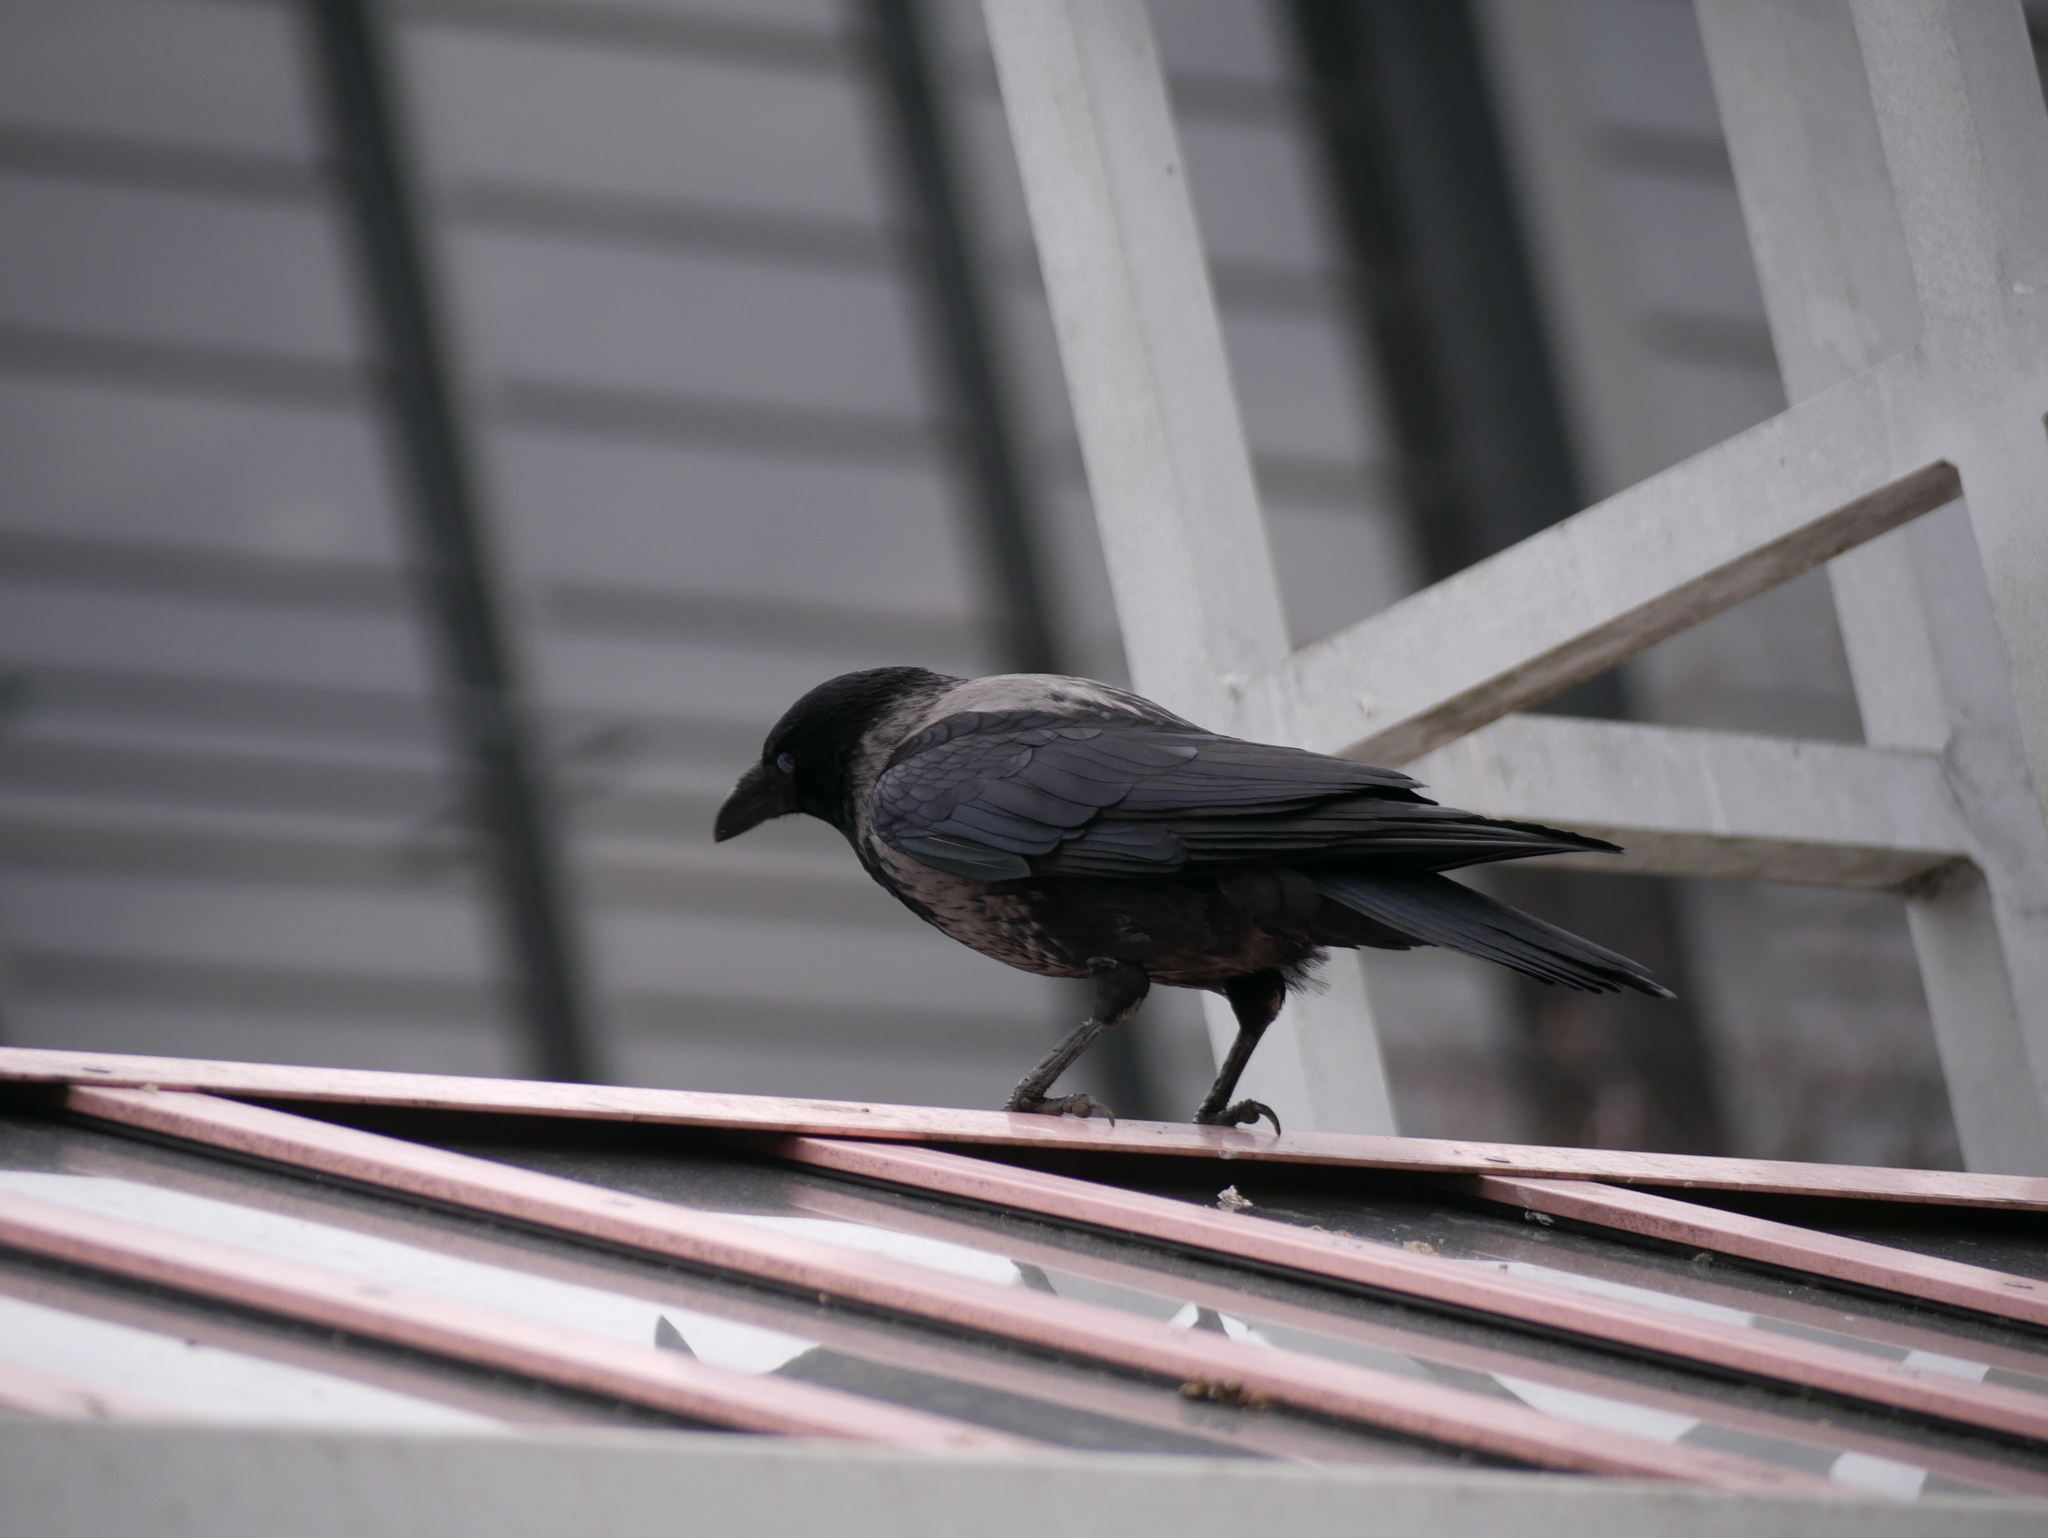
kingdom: Animalia
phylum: Chordata
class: Aves
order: Passeriformes
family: Corvidae
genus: Corvus
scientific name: Corvus
